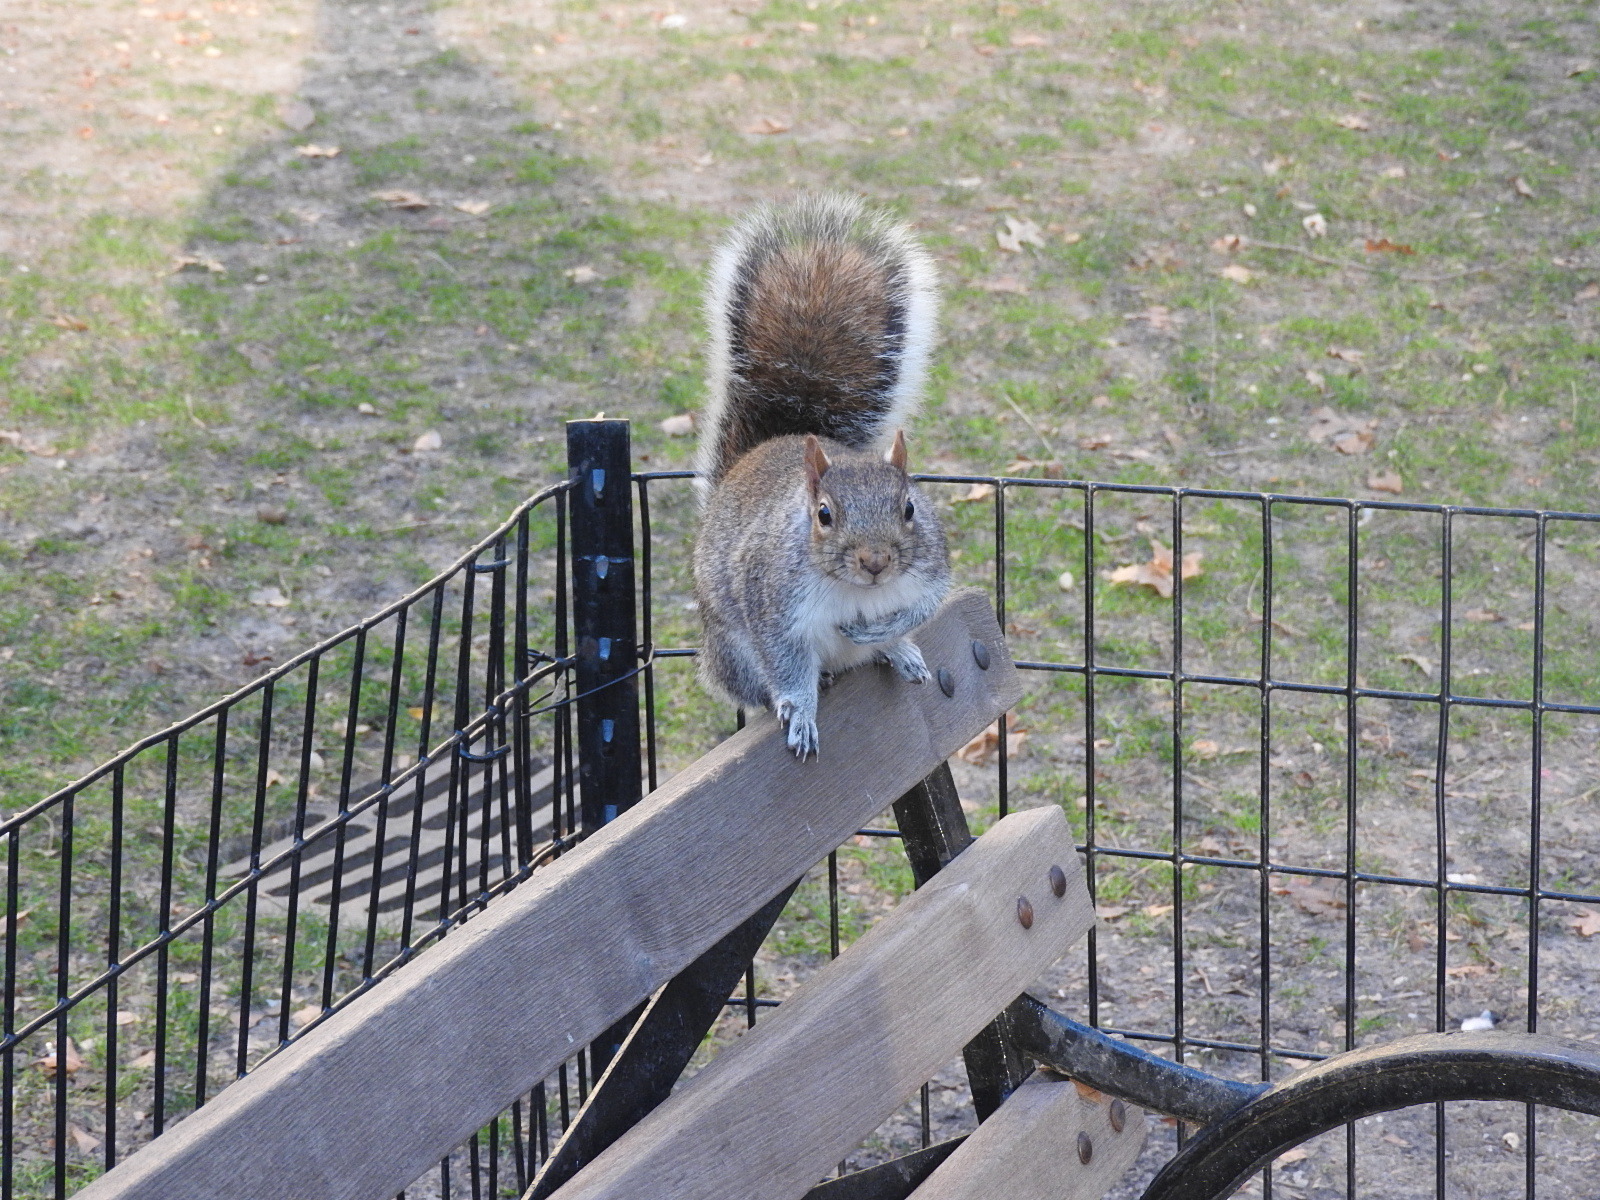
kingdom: Animalia
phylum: Chordata
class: Mammalia
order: Rodentia
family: Sciuridae
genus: Sciurus
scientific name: Sciurus carolinensis
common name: Eastern gray squirrel
